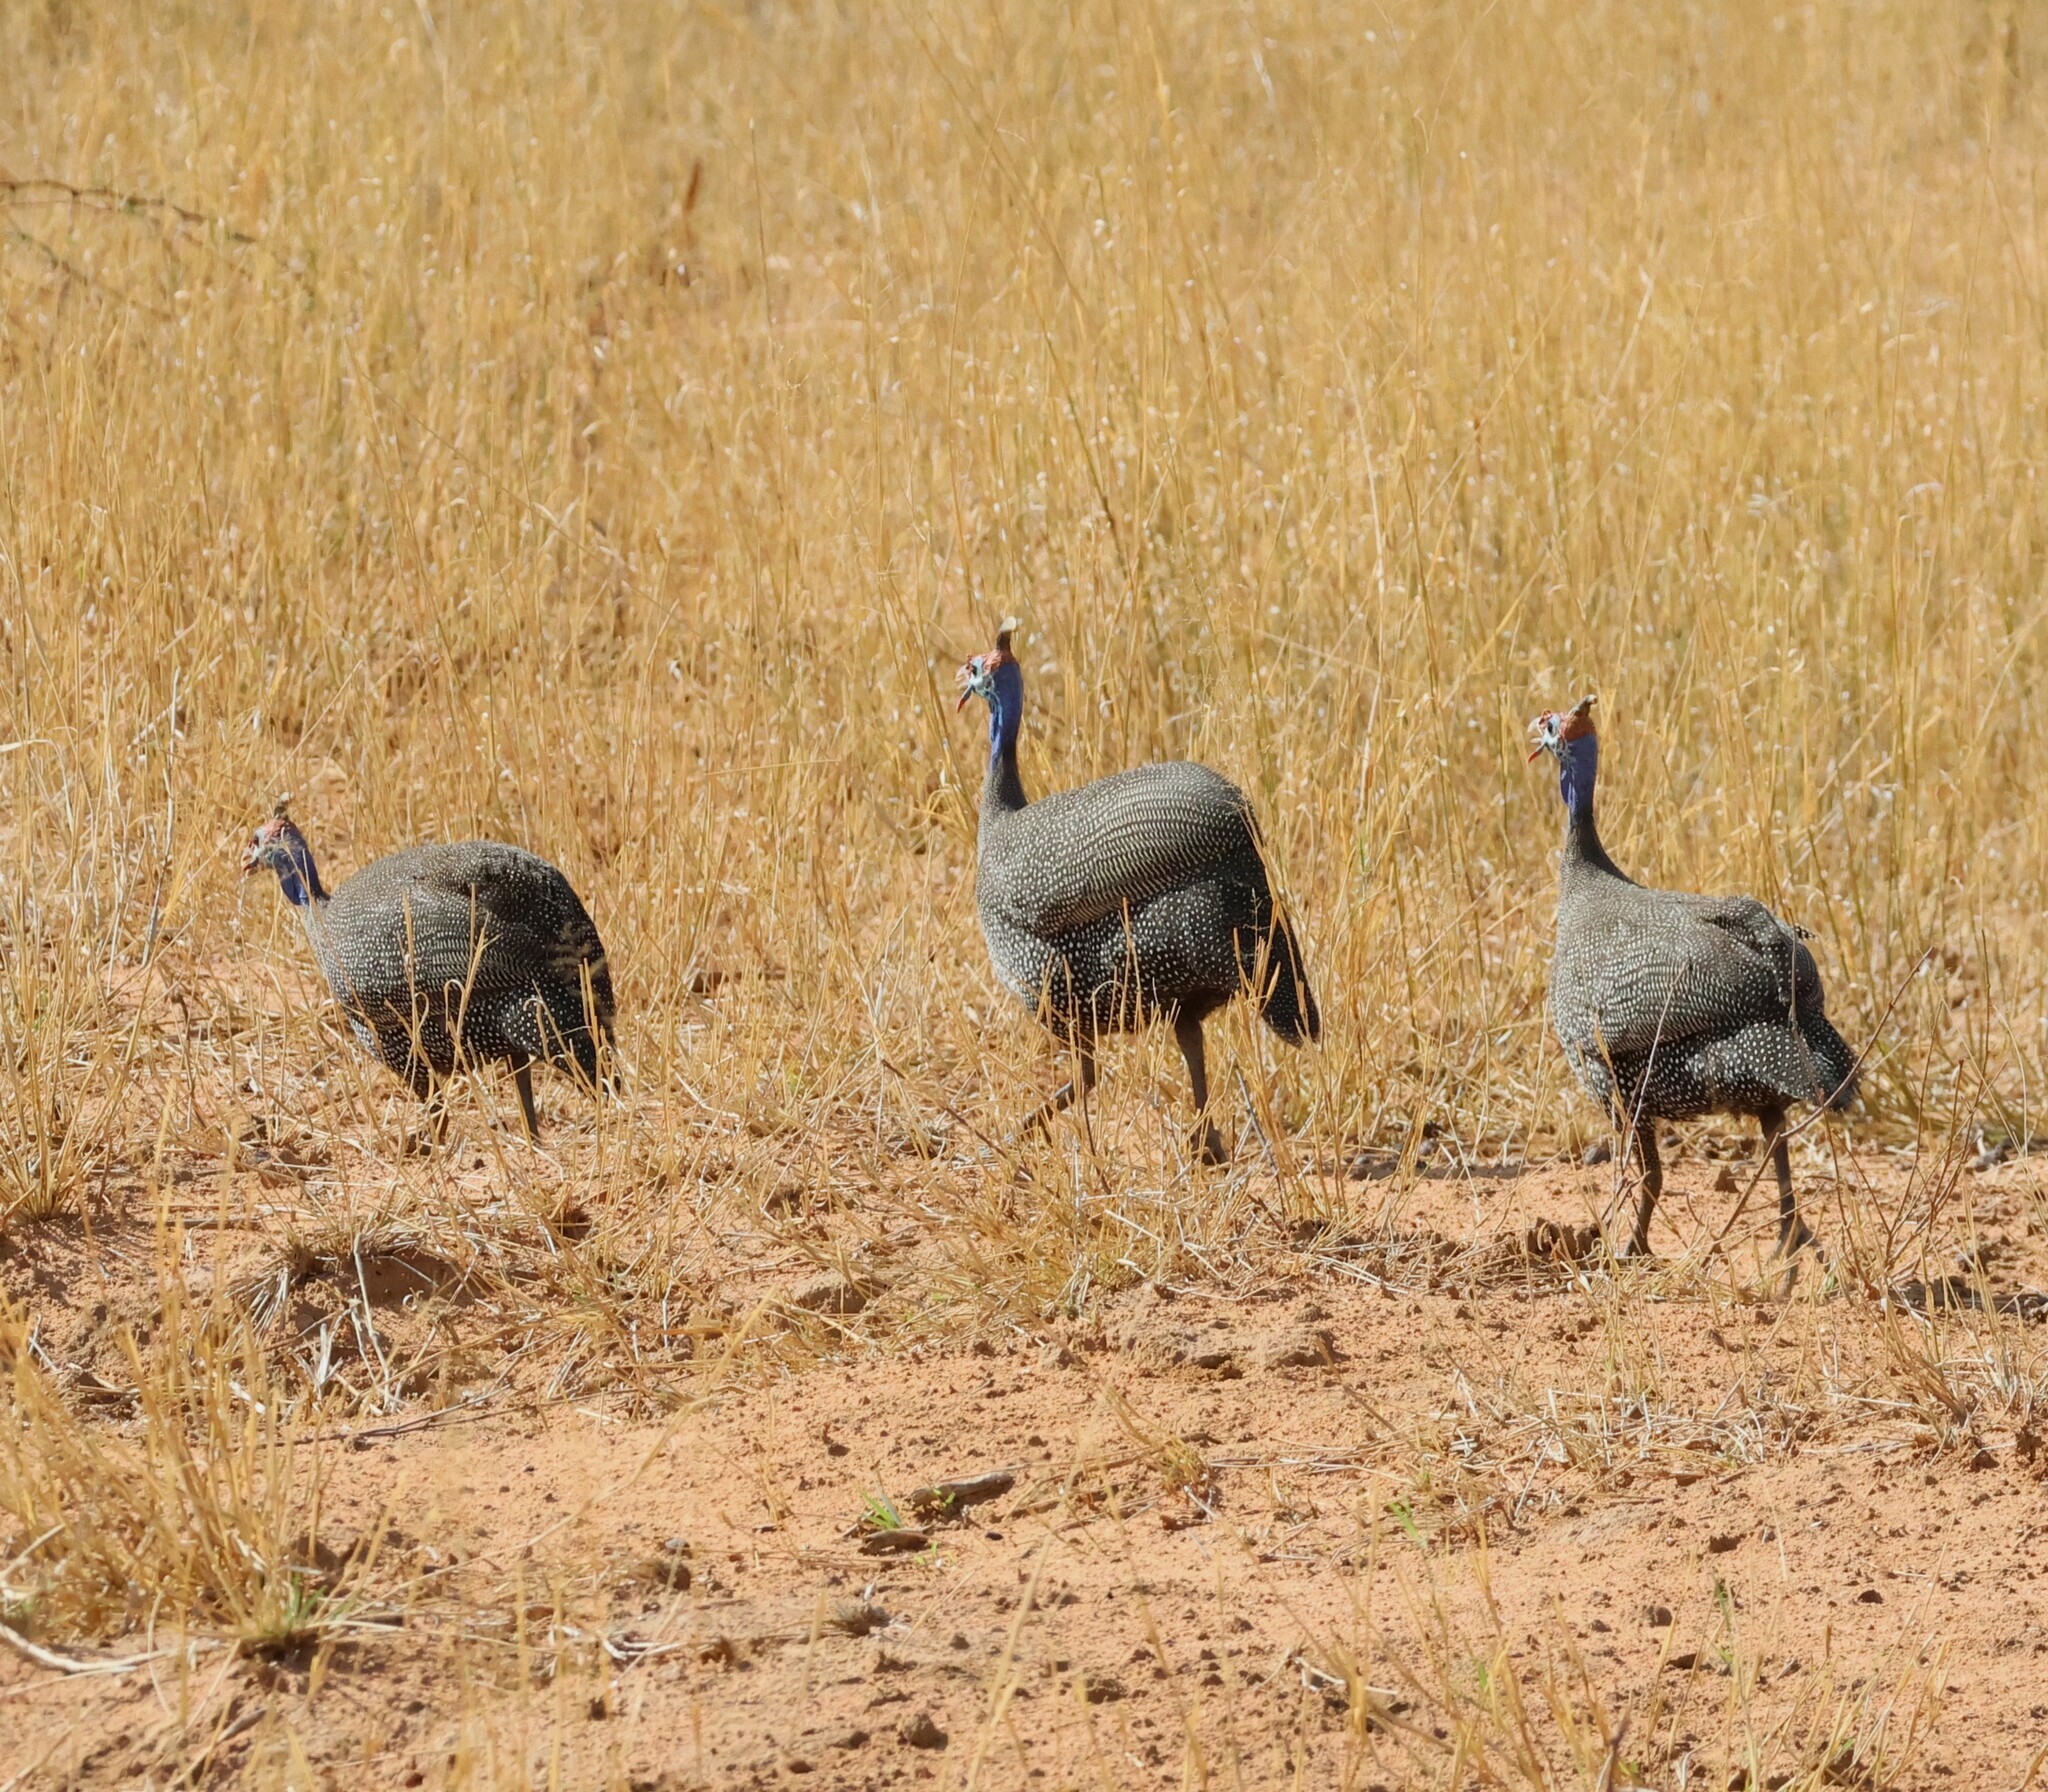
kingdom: Animalia
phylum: Chordata
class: Aves
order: Galliformes
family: Numididae
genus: Numida
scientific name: Numida meleagris
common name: Helmeted guineafowl
